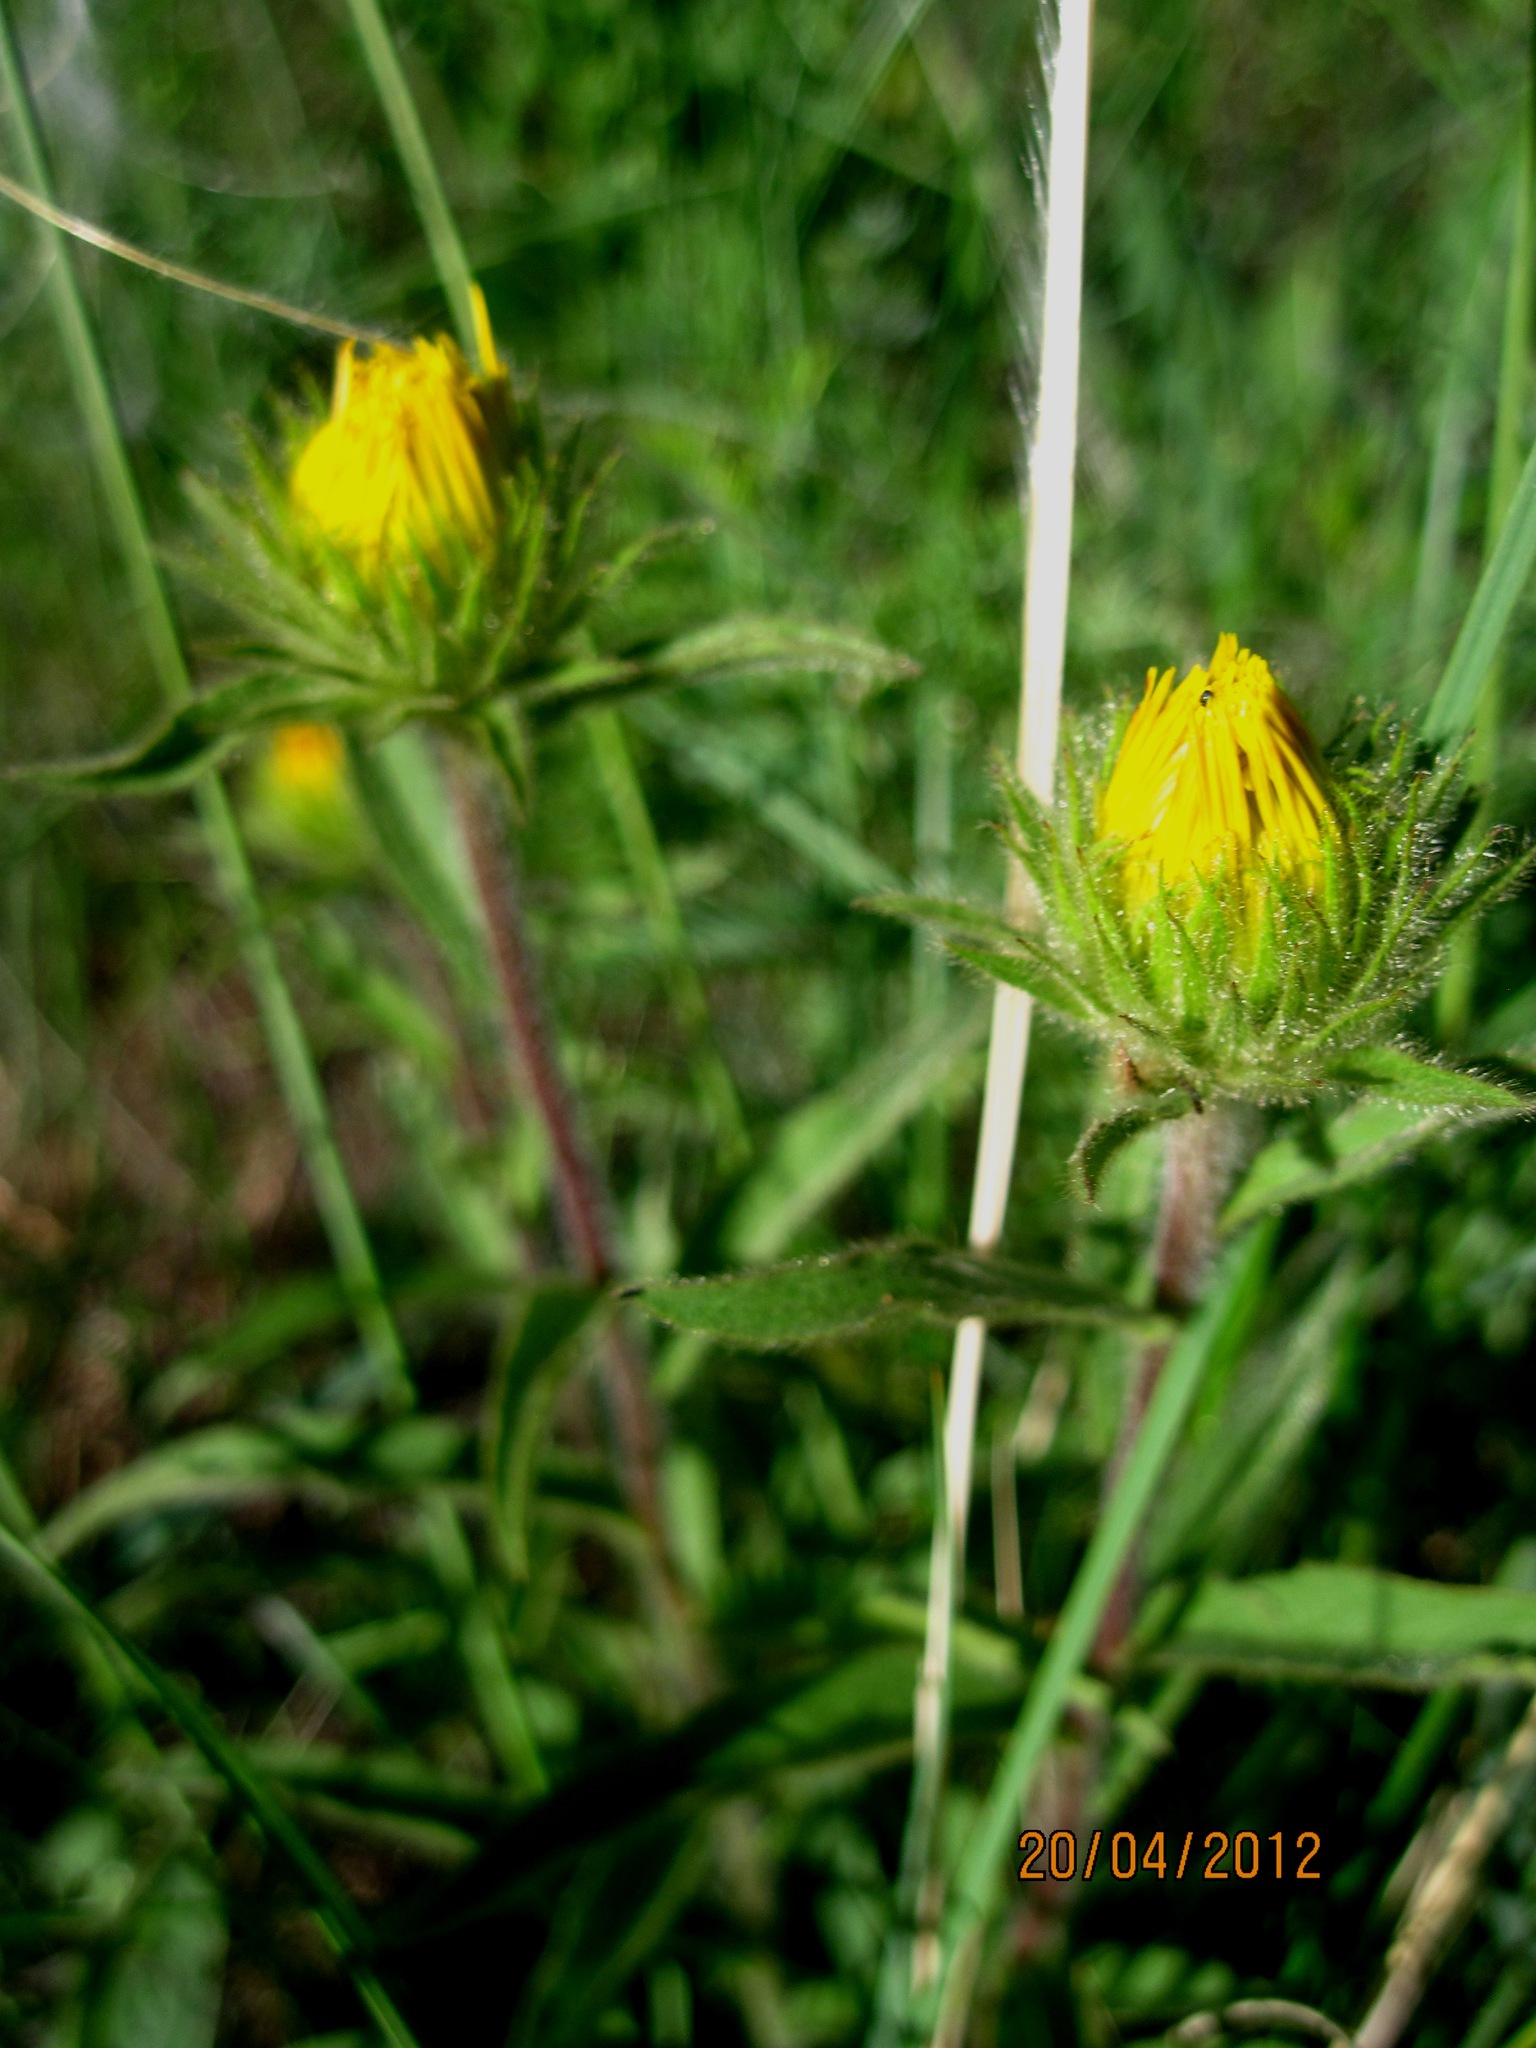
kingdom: Plantae
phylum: Tracheophyta
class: Magnoliopsida
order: Asterales
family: Asteraceae
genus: Pentanema
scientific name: Pentanema hirtum
